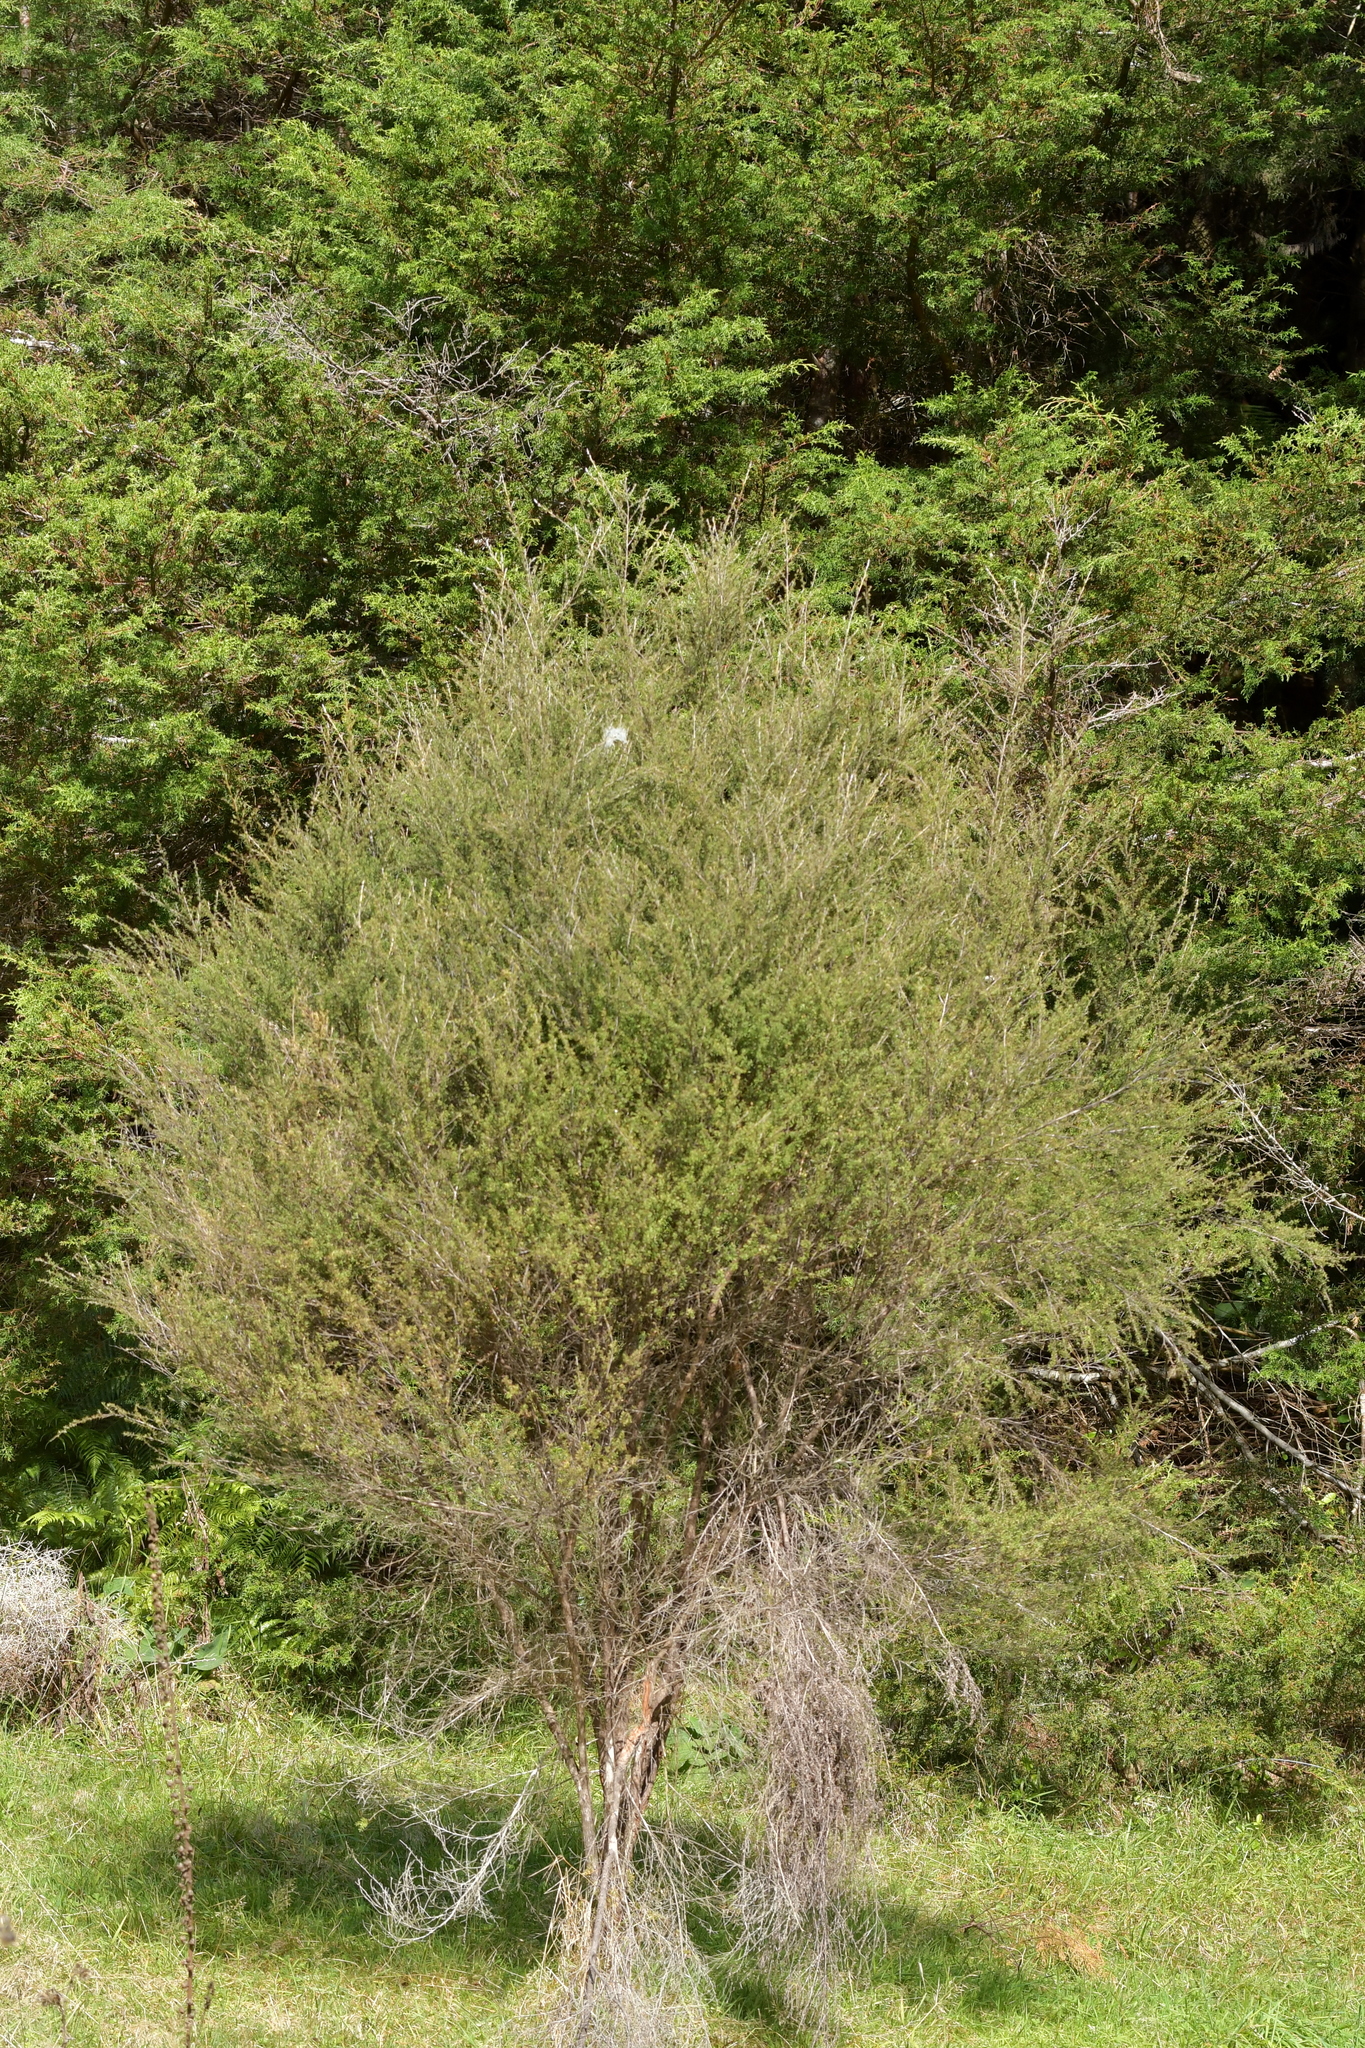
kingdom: Plantae
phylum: Tracheophyta
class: Magnoliopsida
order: Myrtales
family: Myrtaceae
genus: Leptospermum
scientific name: Leptospermum scoparium
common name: Broom tea-tree
